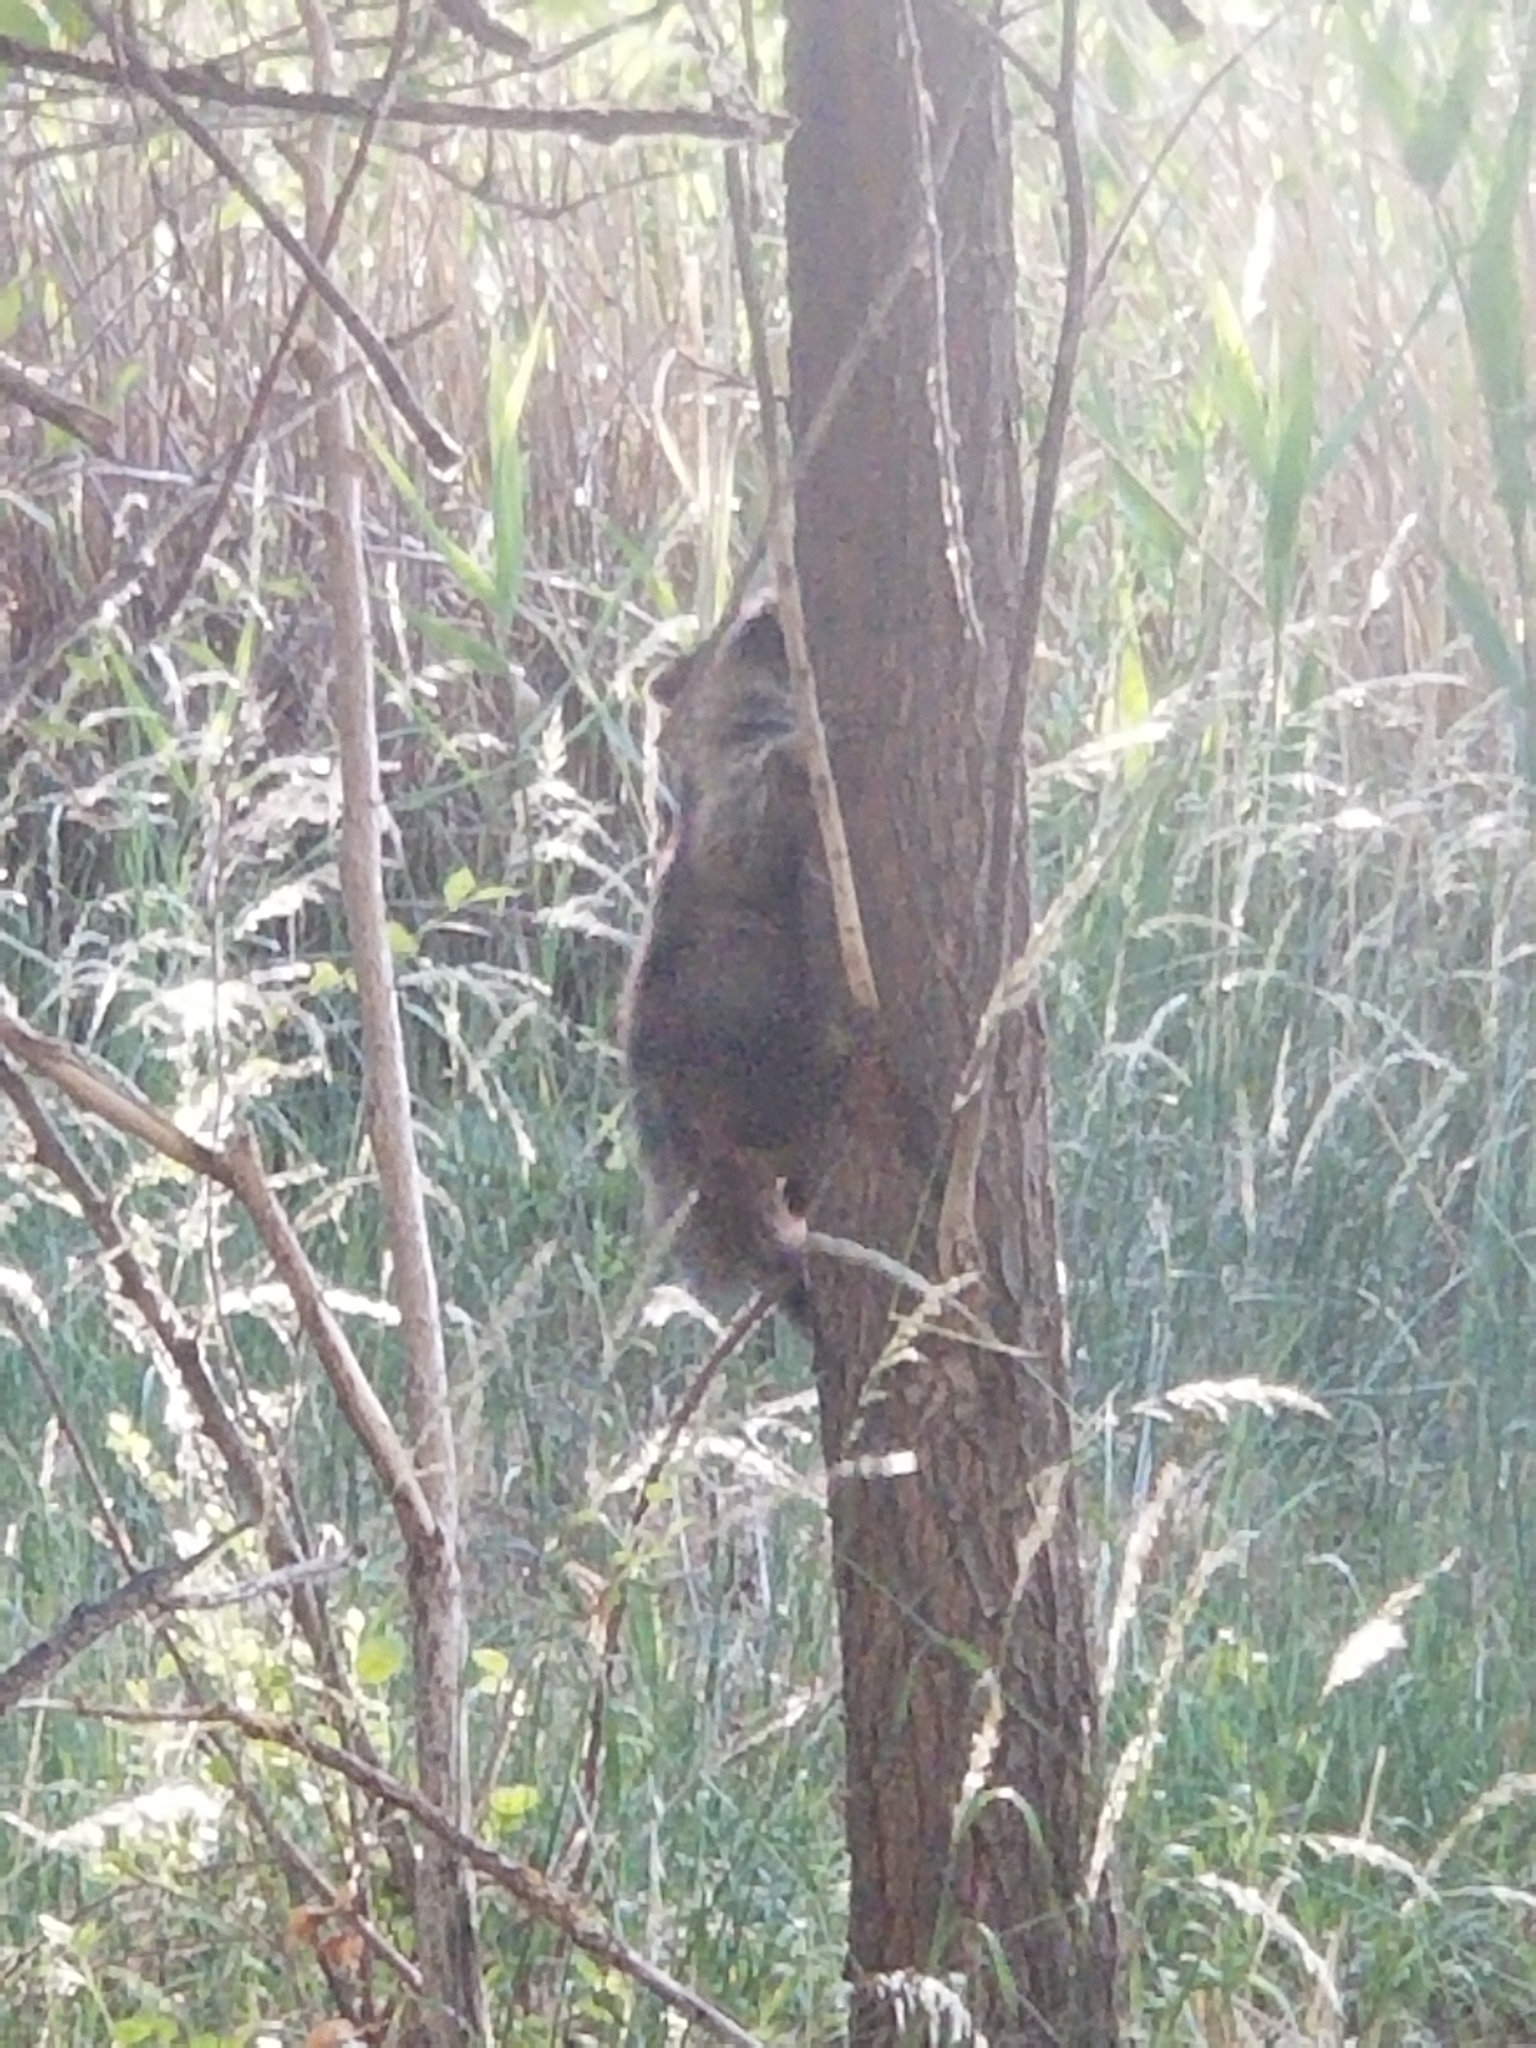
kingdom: Animalia
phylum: Chordata
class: Mammalia
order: Carnivora
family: Procyonidae
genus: Procyon
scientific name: Procyon lotor
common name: Raccoon
